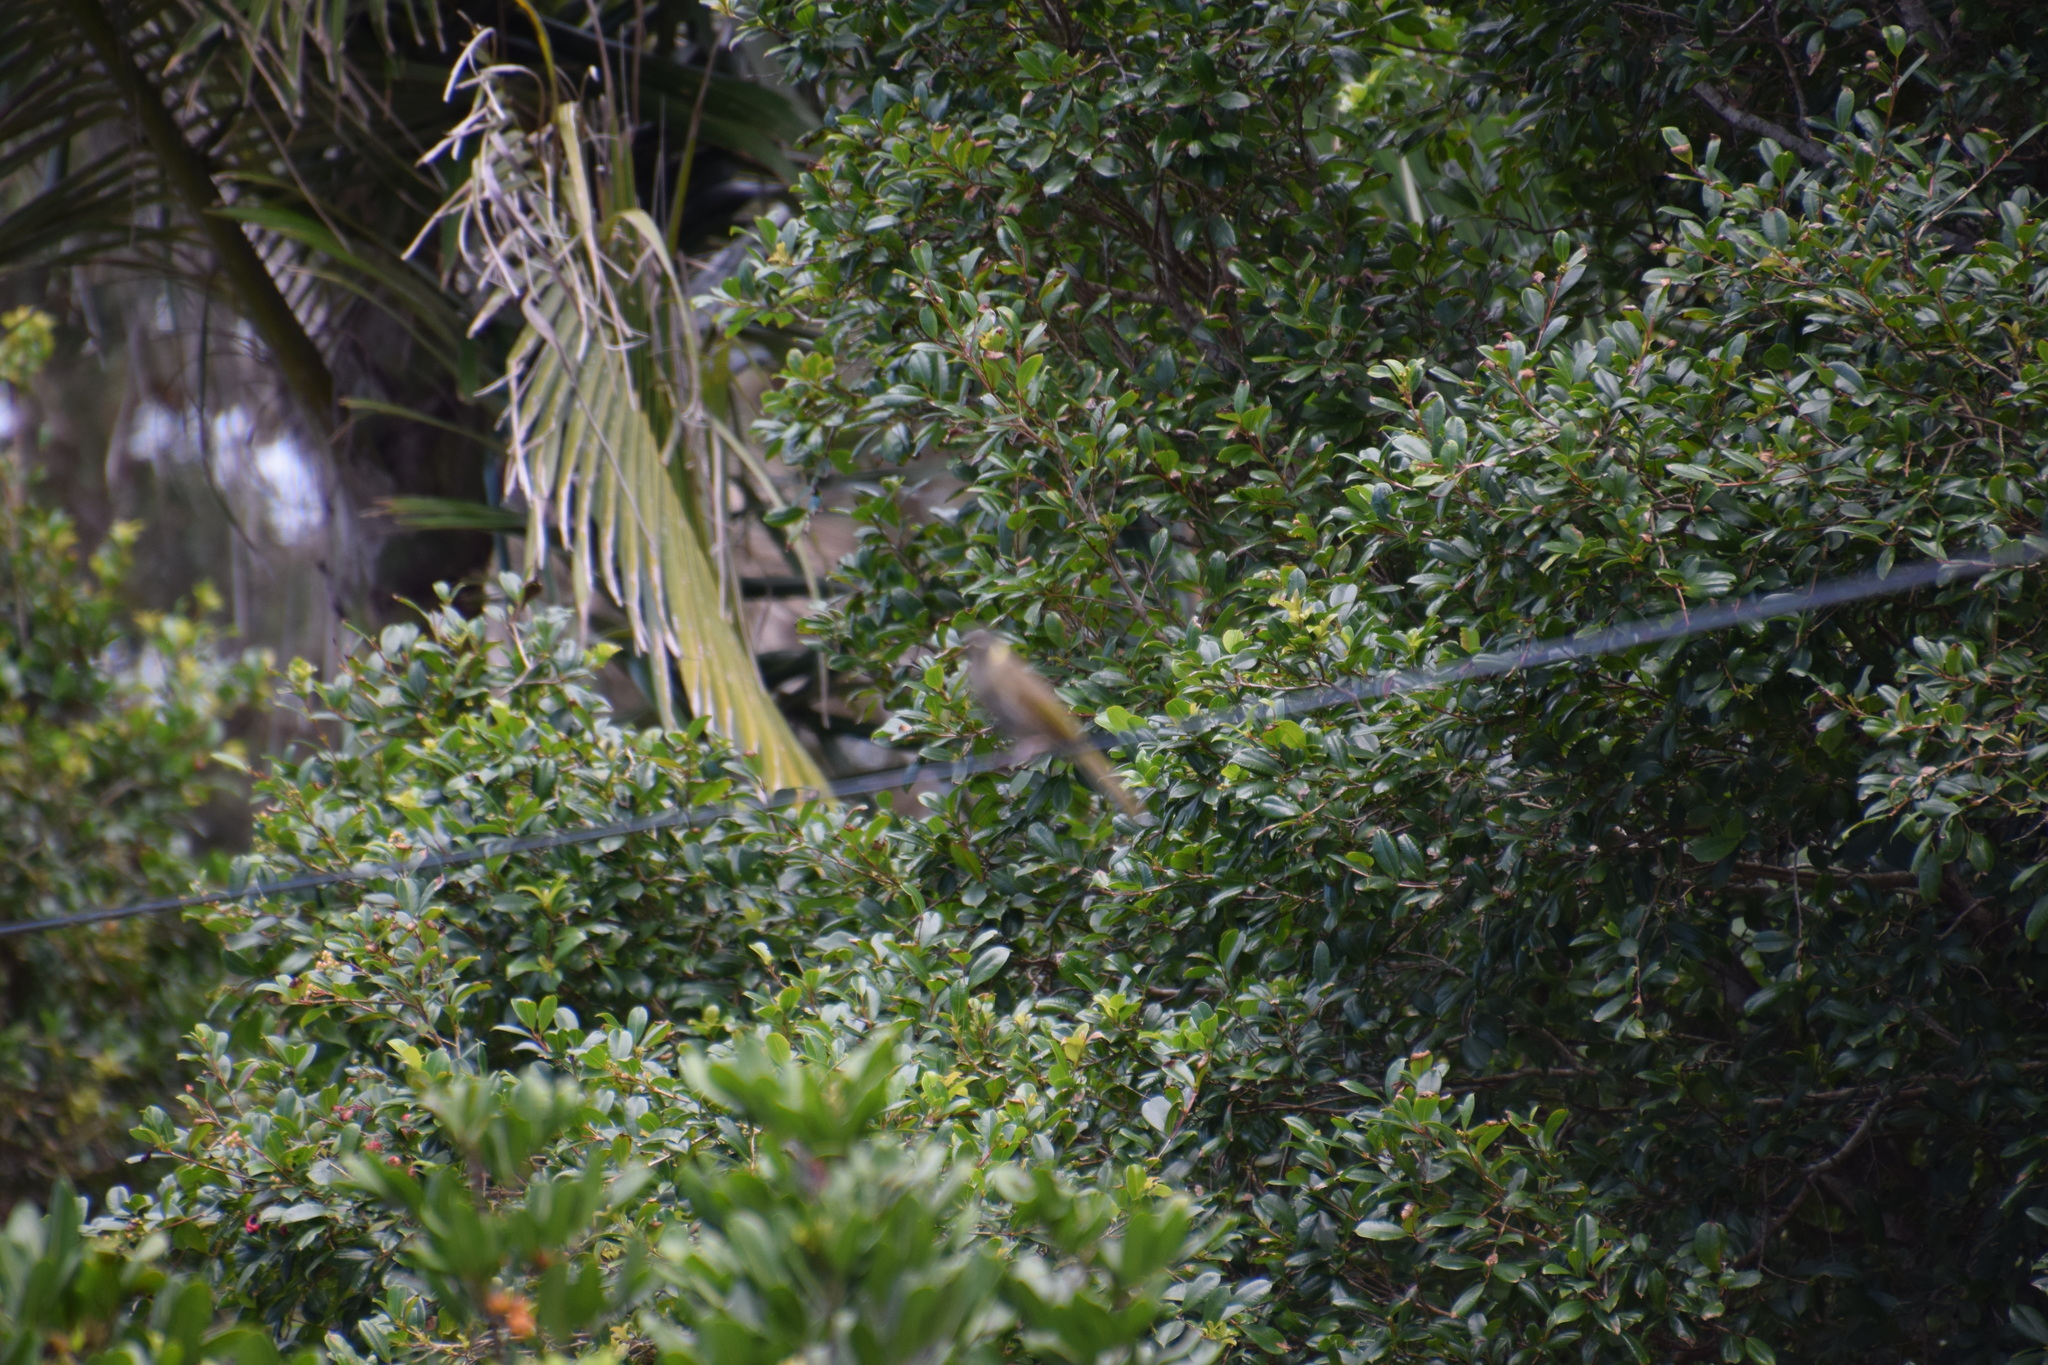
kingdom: Animalia
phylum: Chordata
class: Aves
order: Passeriformes
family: Meliphagidae
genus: Meliphaga
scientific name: Meliphaga lewinii
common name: Lewin's honeyeater
